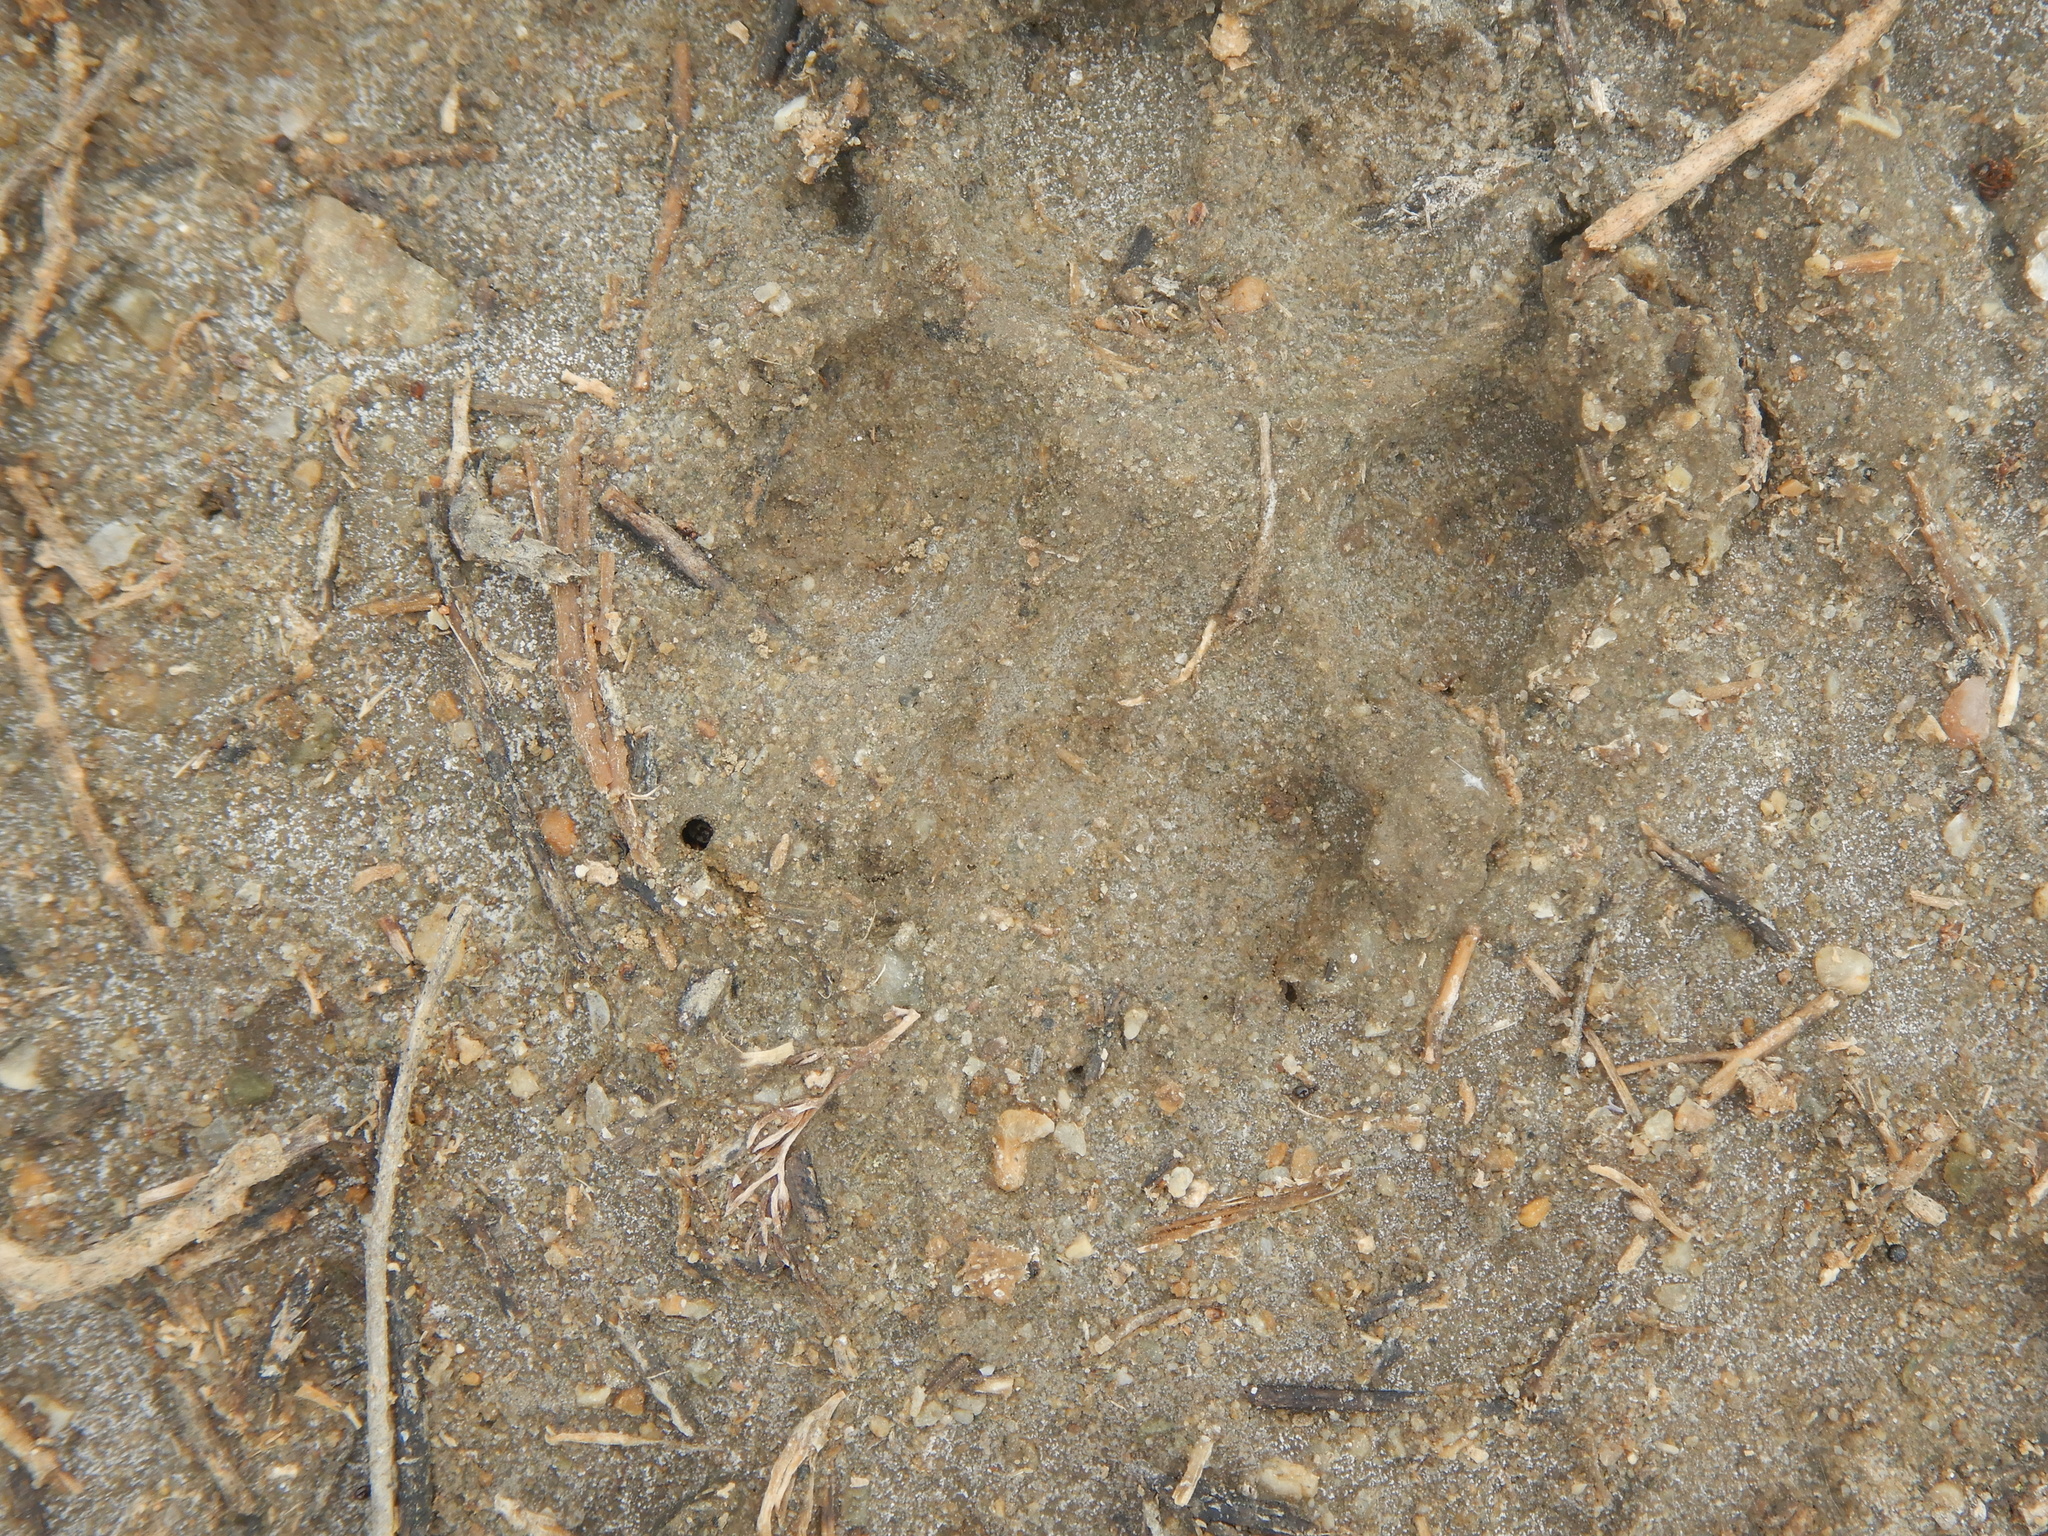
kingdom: Animalia
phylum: Chordata
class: Mammalia
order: Carnivora
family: Canidae
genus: Canis
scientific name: Canis aureus
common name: Golden jackal
